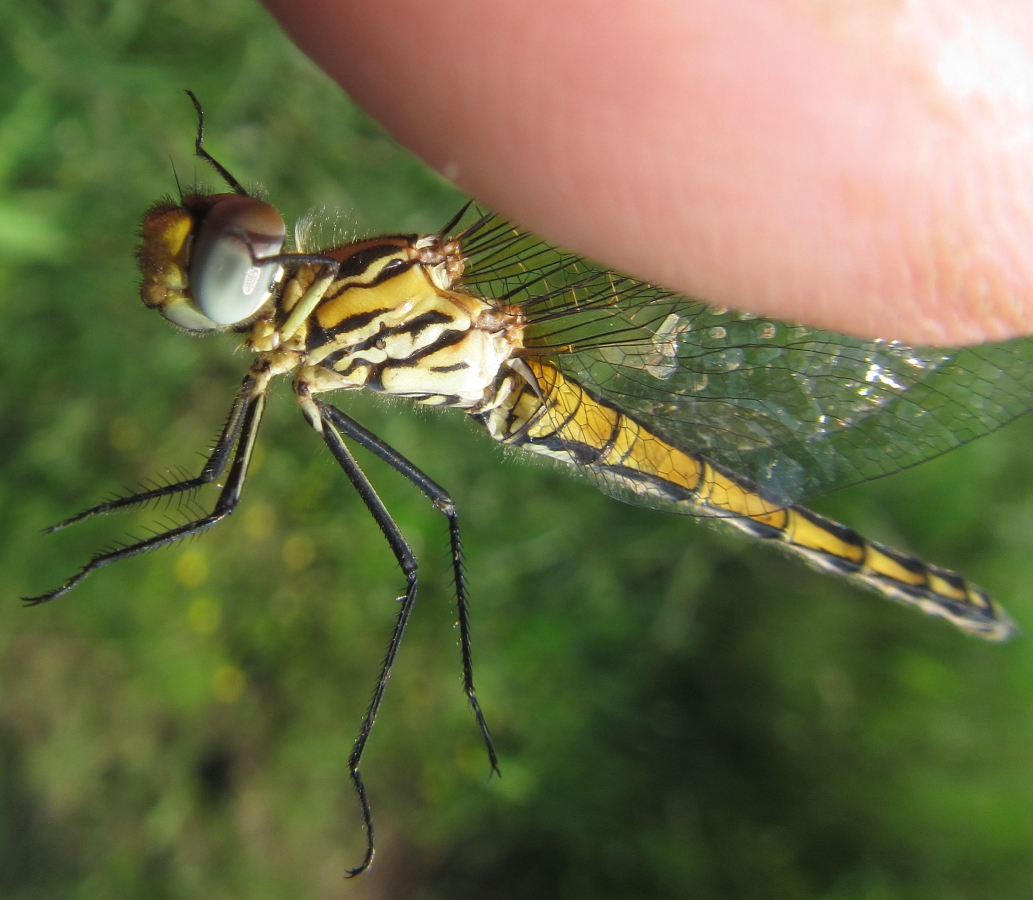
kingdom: Animalia
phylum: Arthropoda
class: Insecta
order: Odonata
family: Libellulidae
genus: Trithemis
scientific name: Trithemis dorsalis
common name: Highland dropwing
